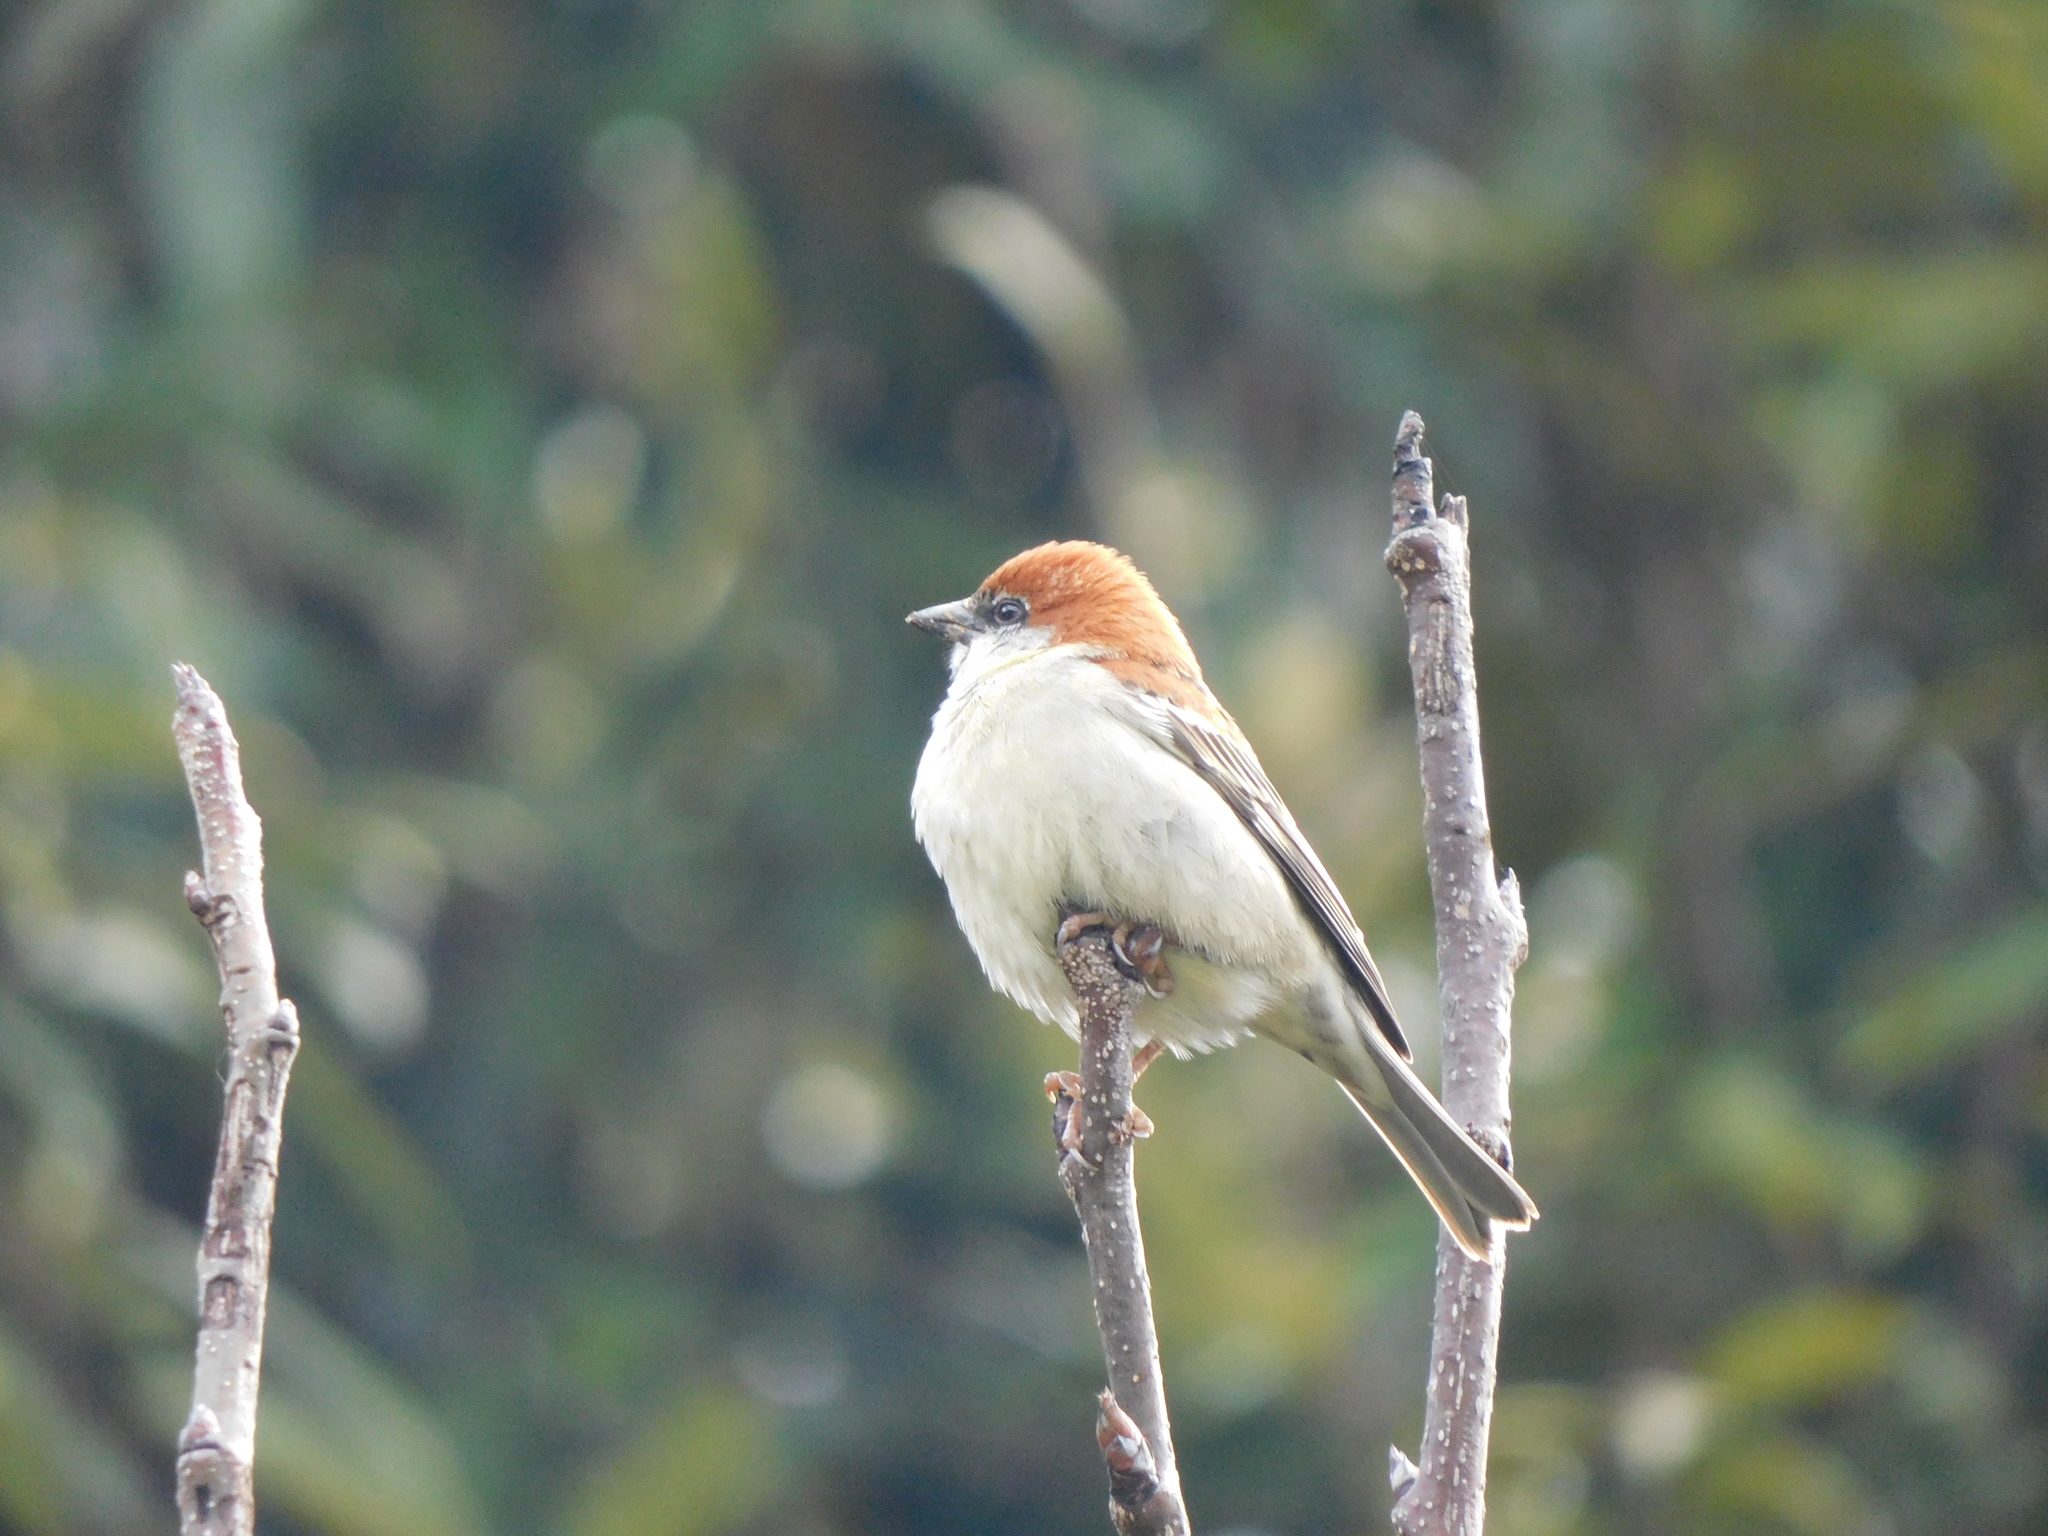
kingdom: Animalia
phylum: Chordata
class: Aves
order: Passeriformes
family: Passeridae
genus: Passer
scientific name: Passer cinnamomeus
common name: Russet sparrow
